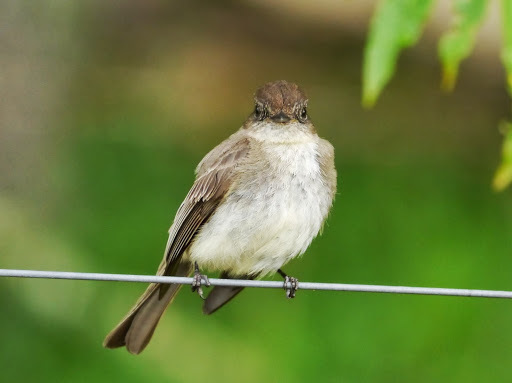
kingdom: Animalia
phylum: Chordata
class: Aves
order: Passeriformes
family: Tyrannidae
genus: Sayornis
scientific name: Sayornis phoebe
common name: Eastern phoebe
